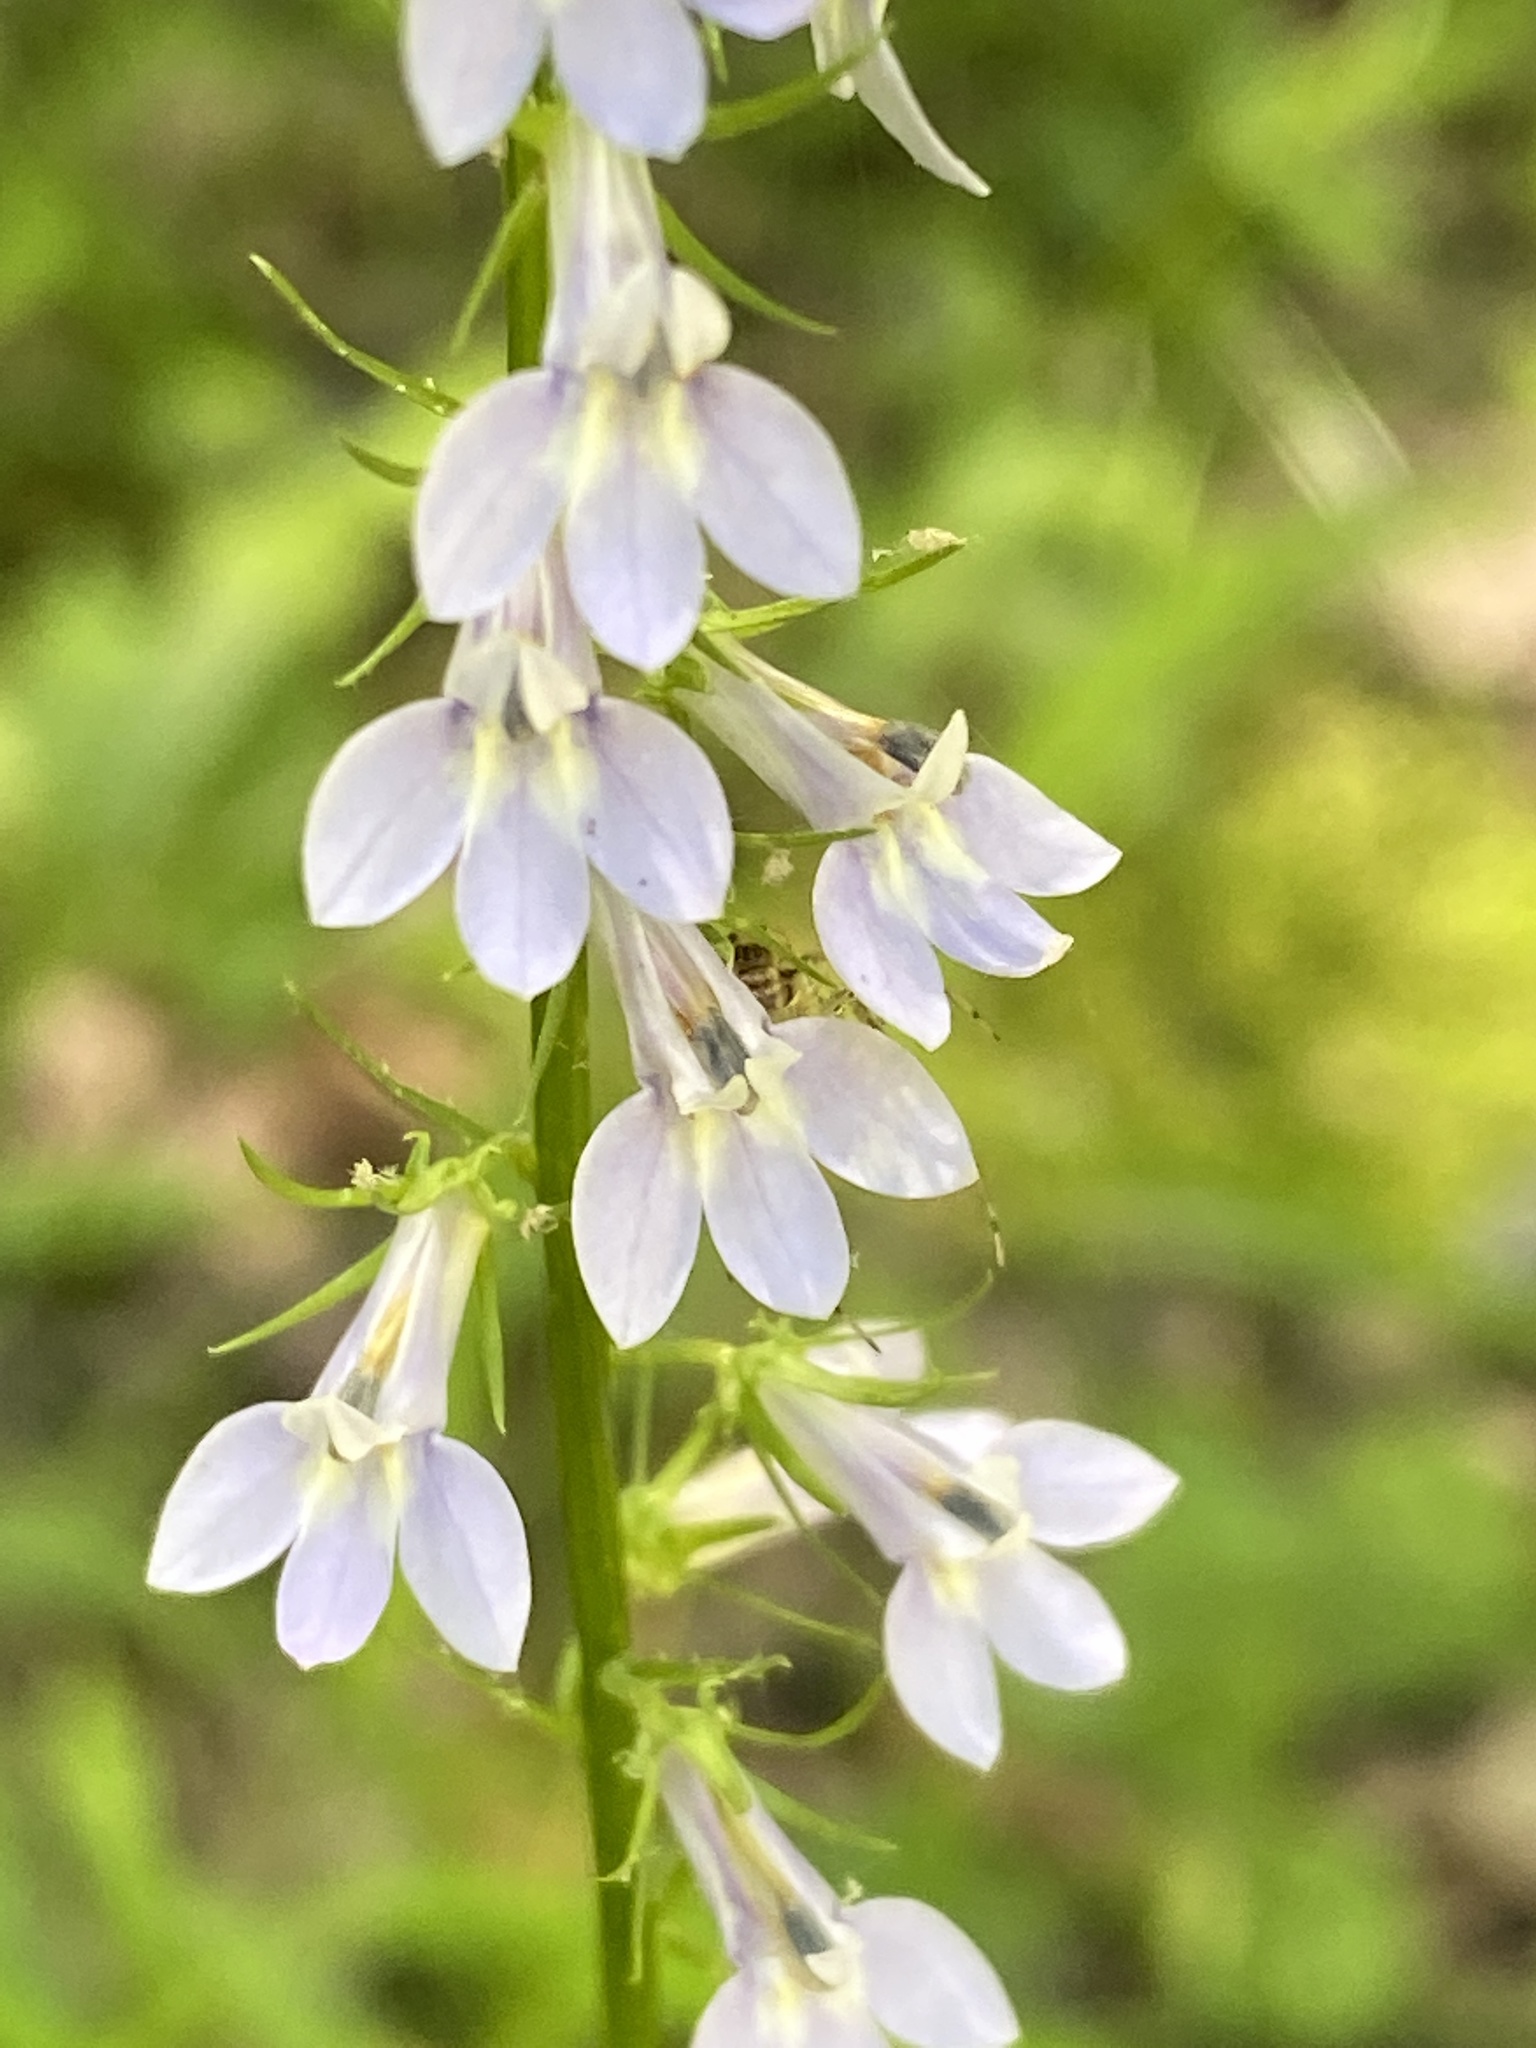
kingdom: Plantae
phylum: Tracheophyta
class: Magnoliopsida
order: Asterales
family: Campanulaceae
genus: Lobelia
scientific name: Lobelia spicata
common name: Pale-spike lobelia
